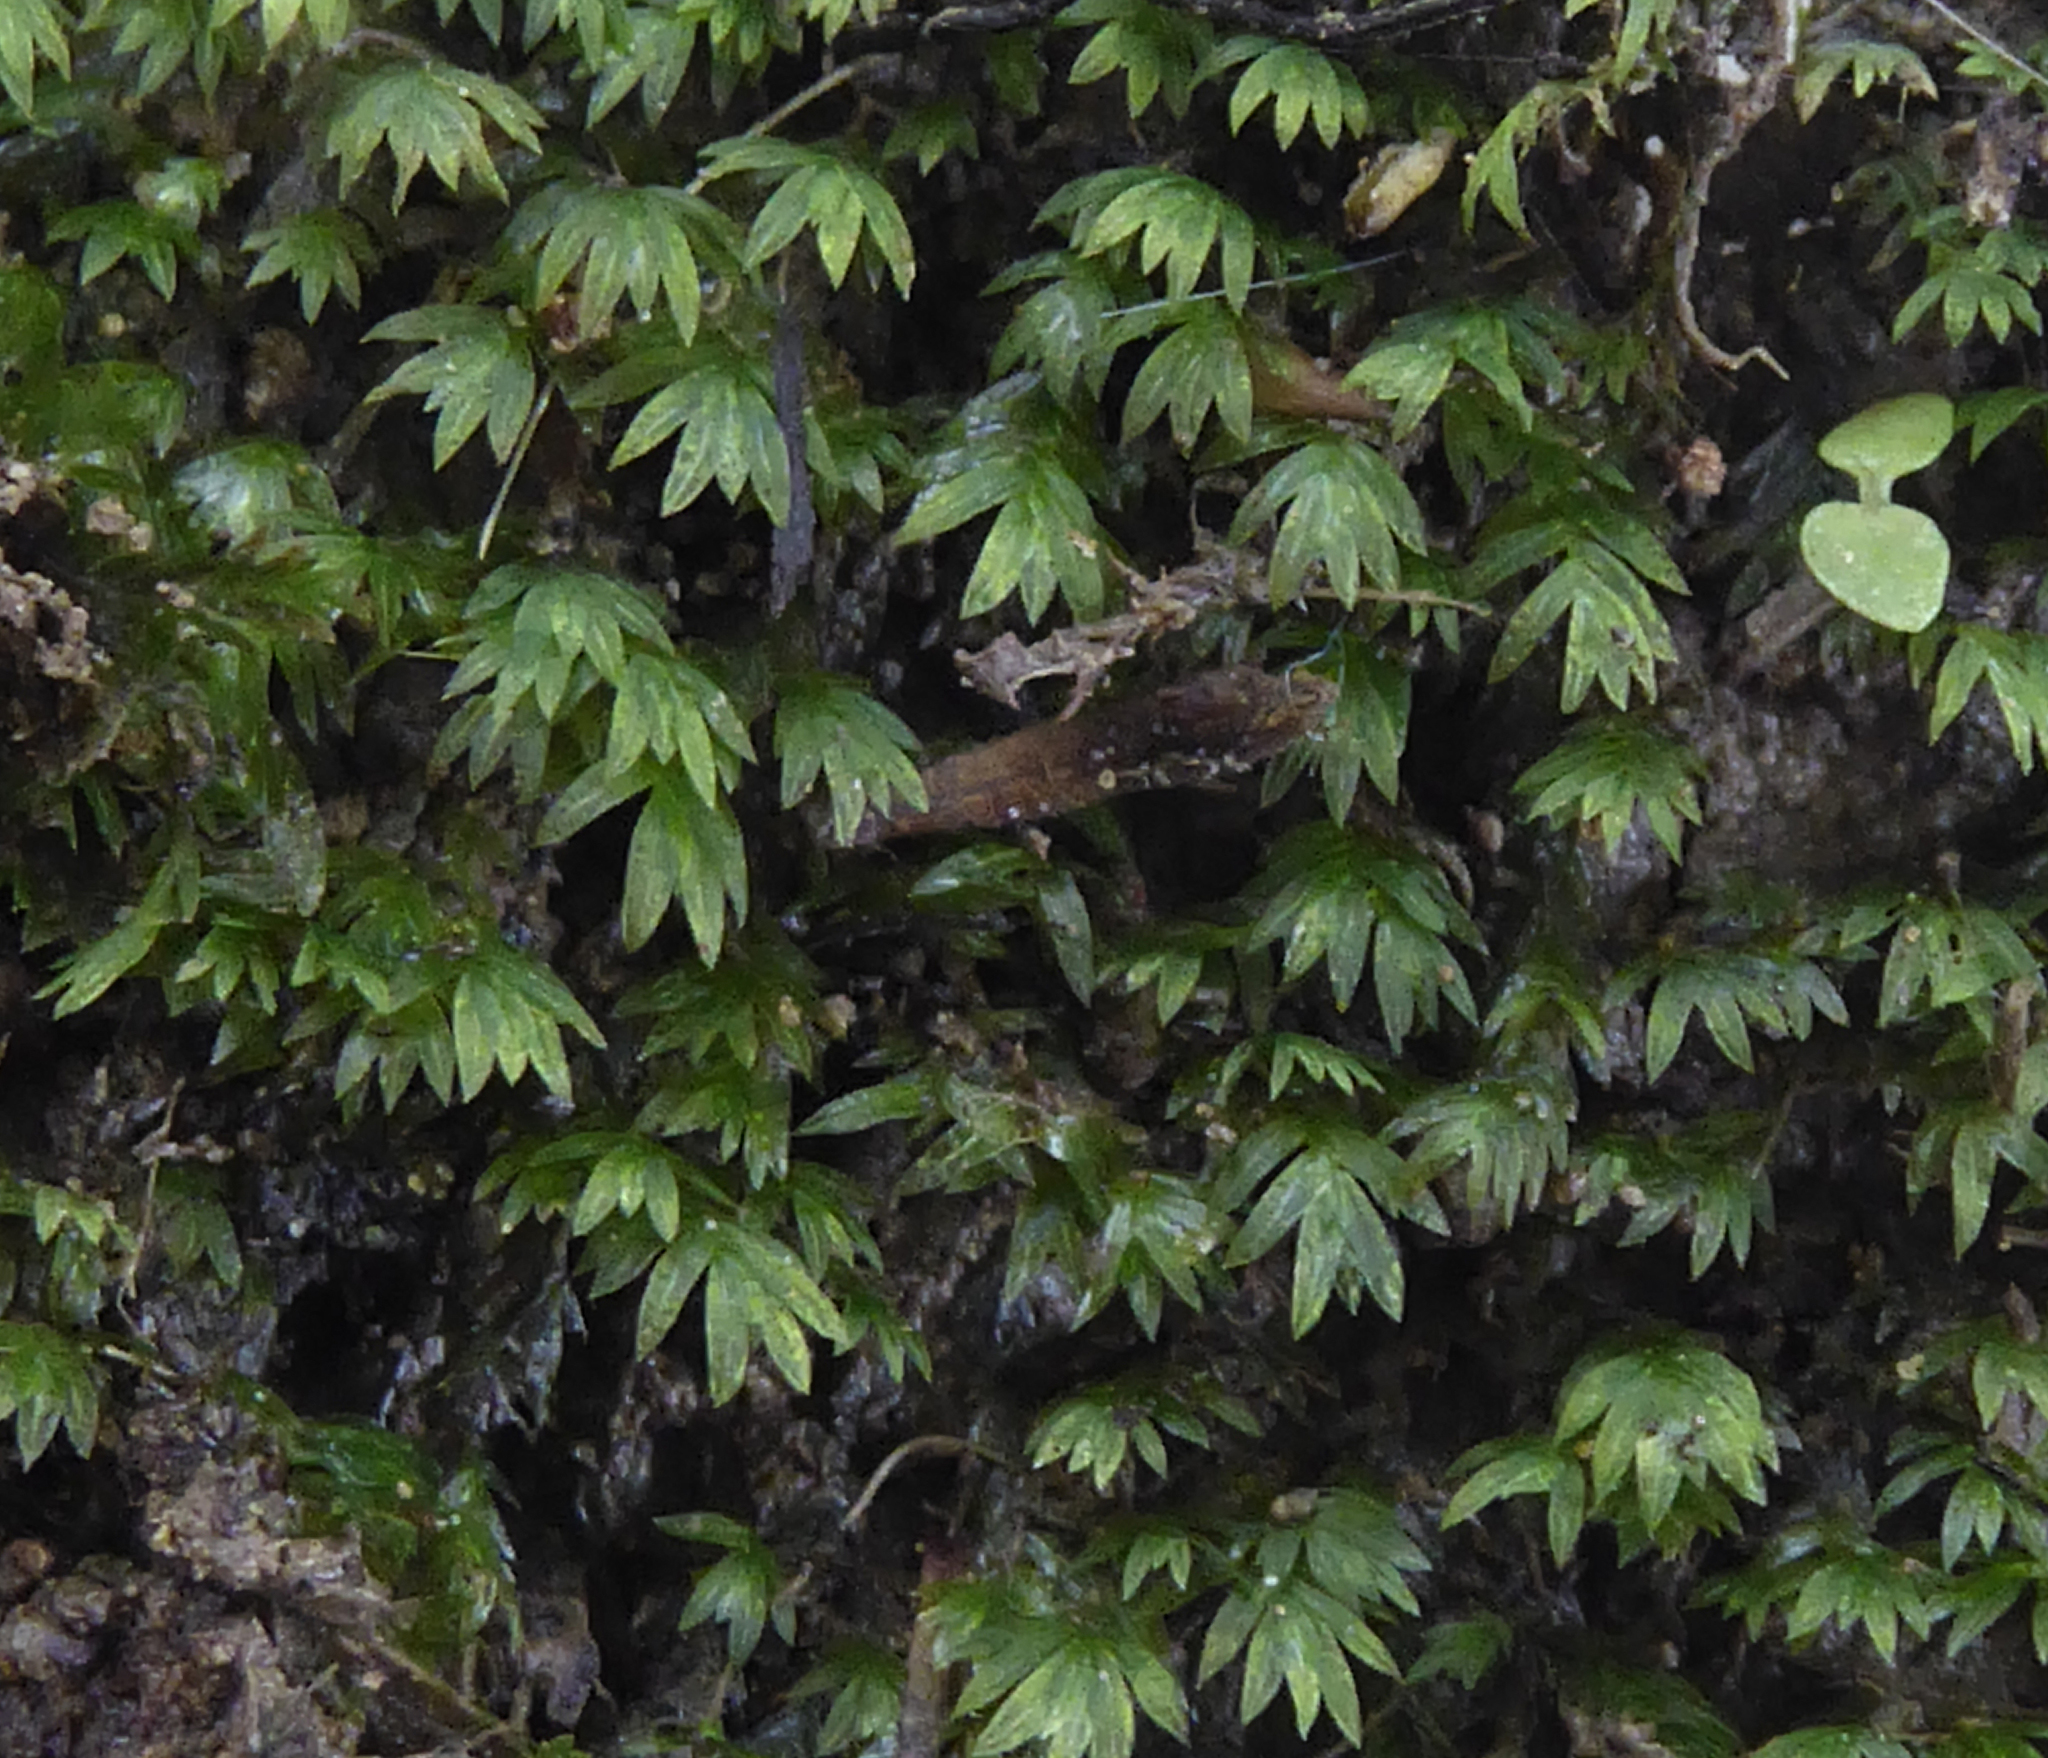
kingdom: Plantae
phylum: Bryophyta
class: Bryopsida
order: Dicranales
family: Fissidentaceae
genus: Fissidens
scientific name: Fissidens leptocladus
